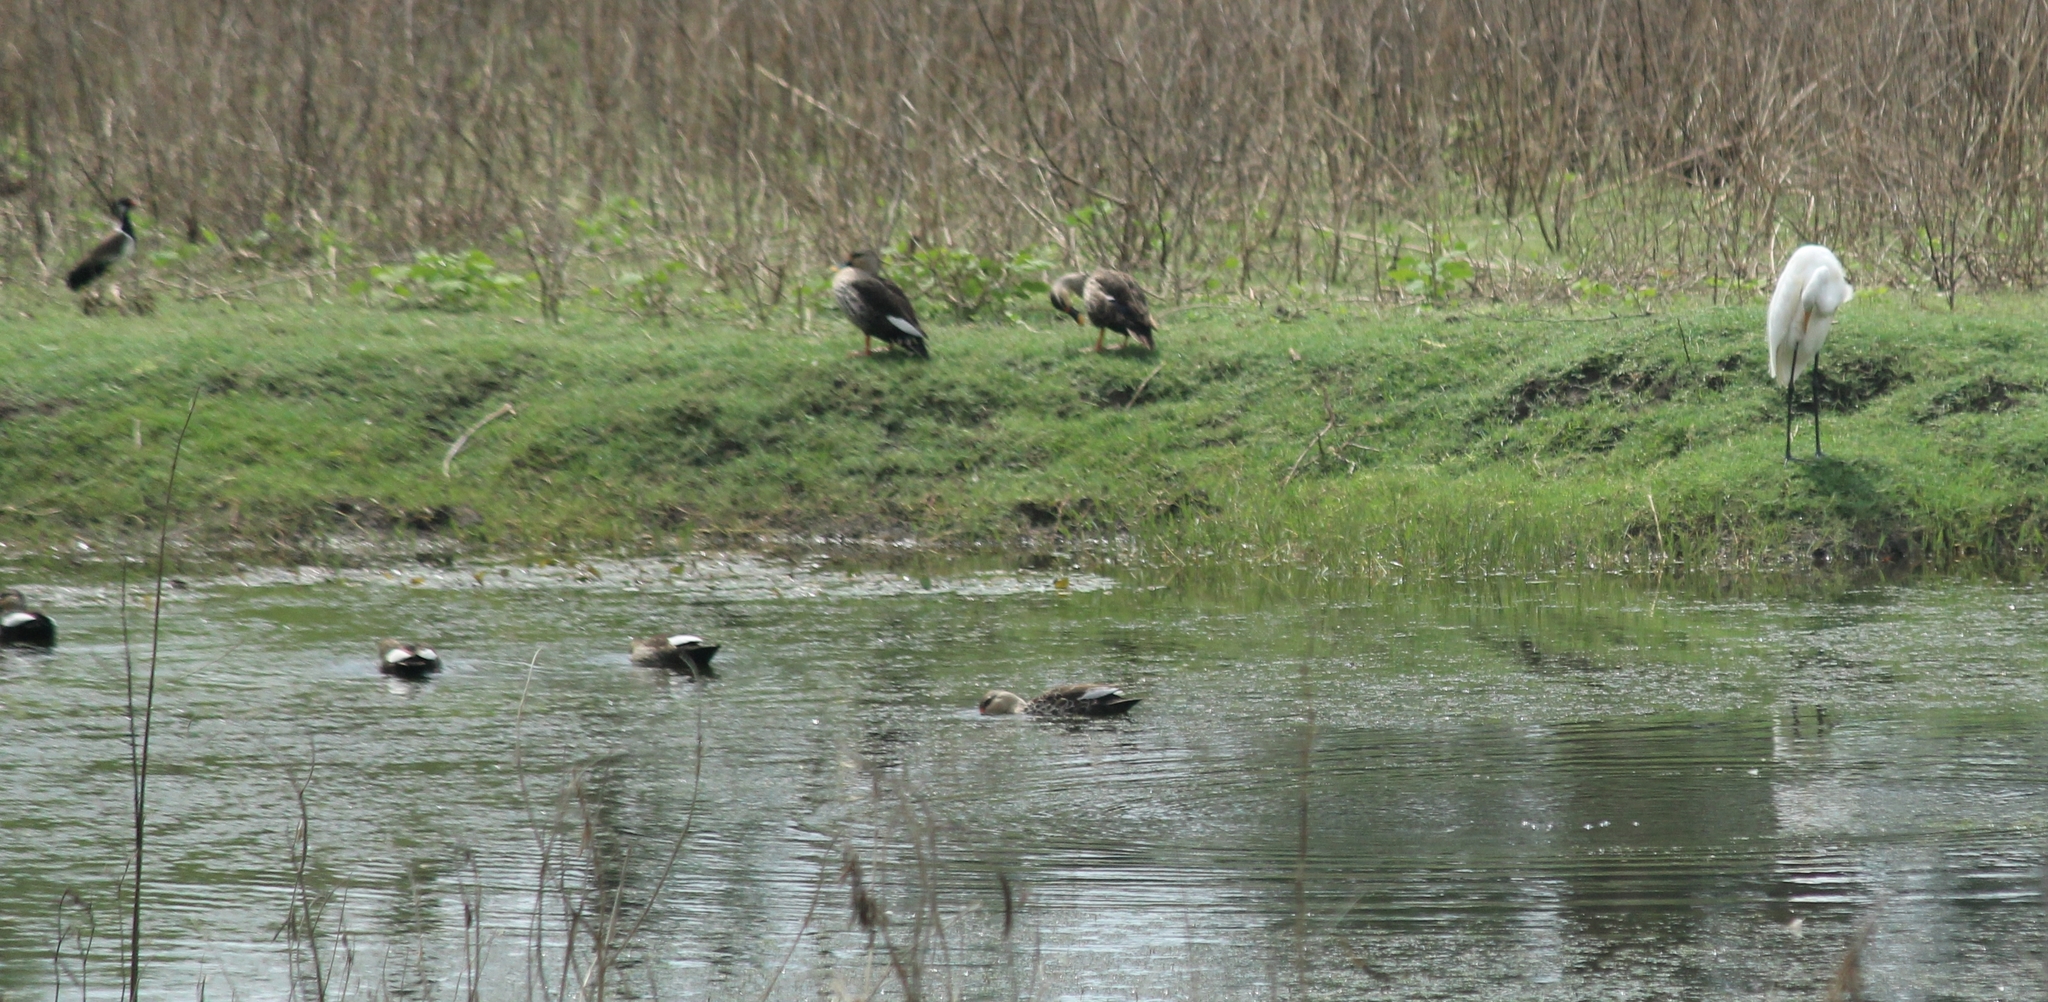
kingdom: Animalia
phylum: Chordata
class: Aves
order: Anseriformes
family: Anatidae
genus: Anas
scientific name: Anas poecilorhyncha
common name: Indian spot-billed duck
